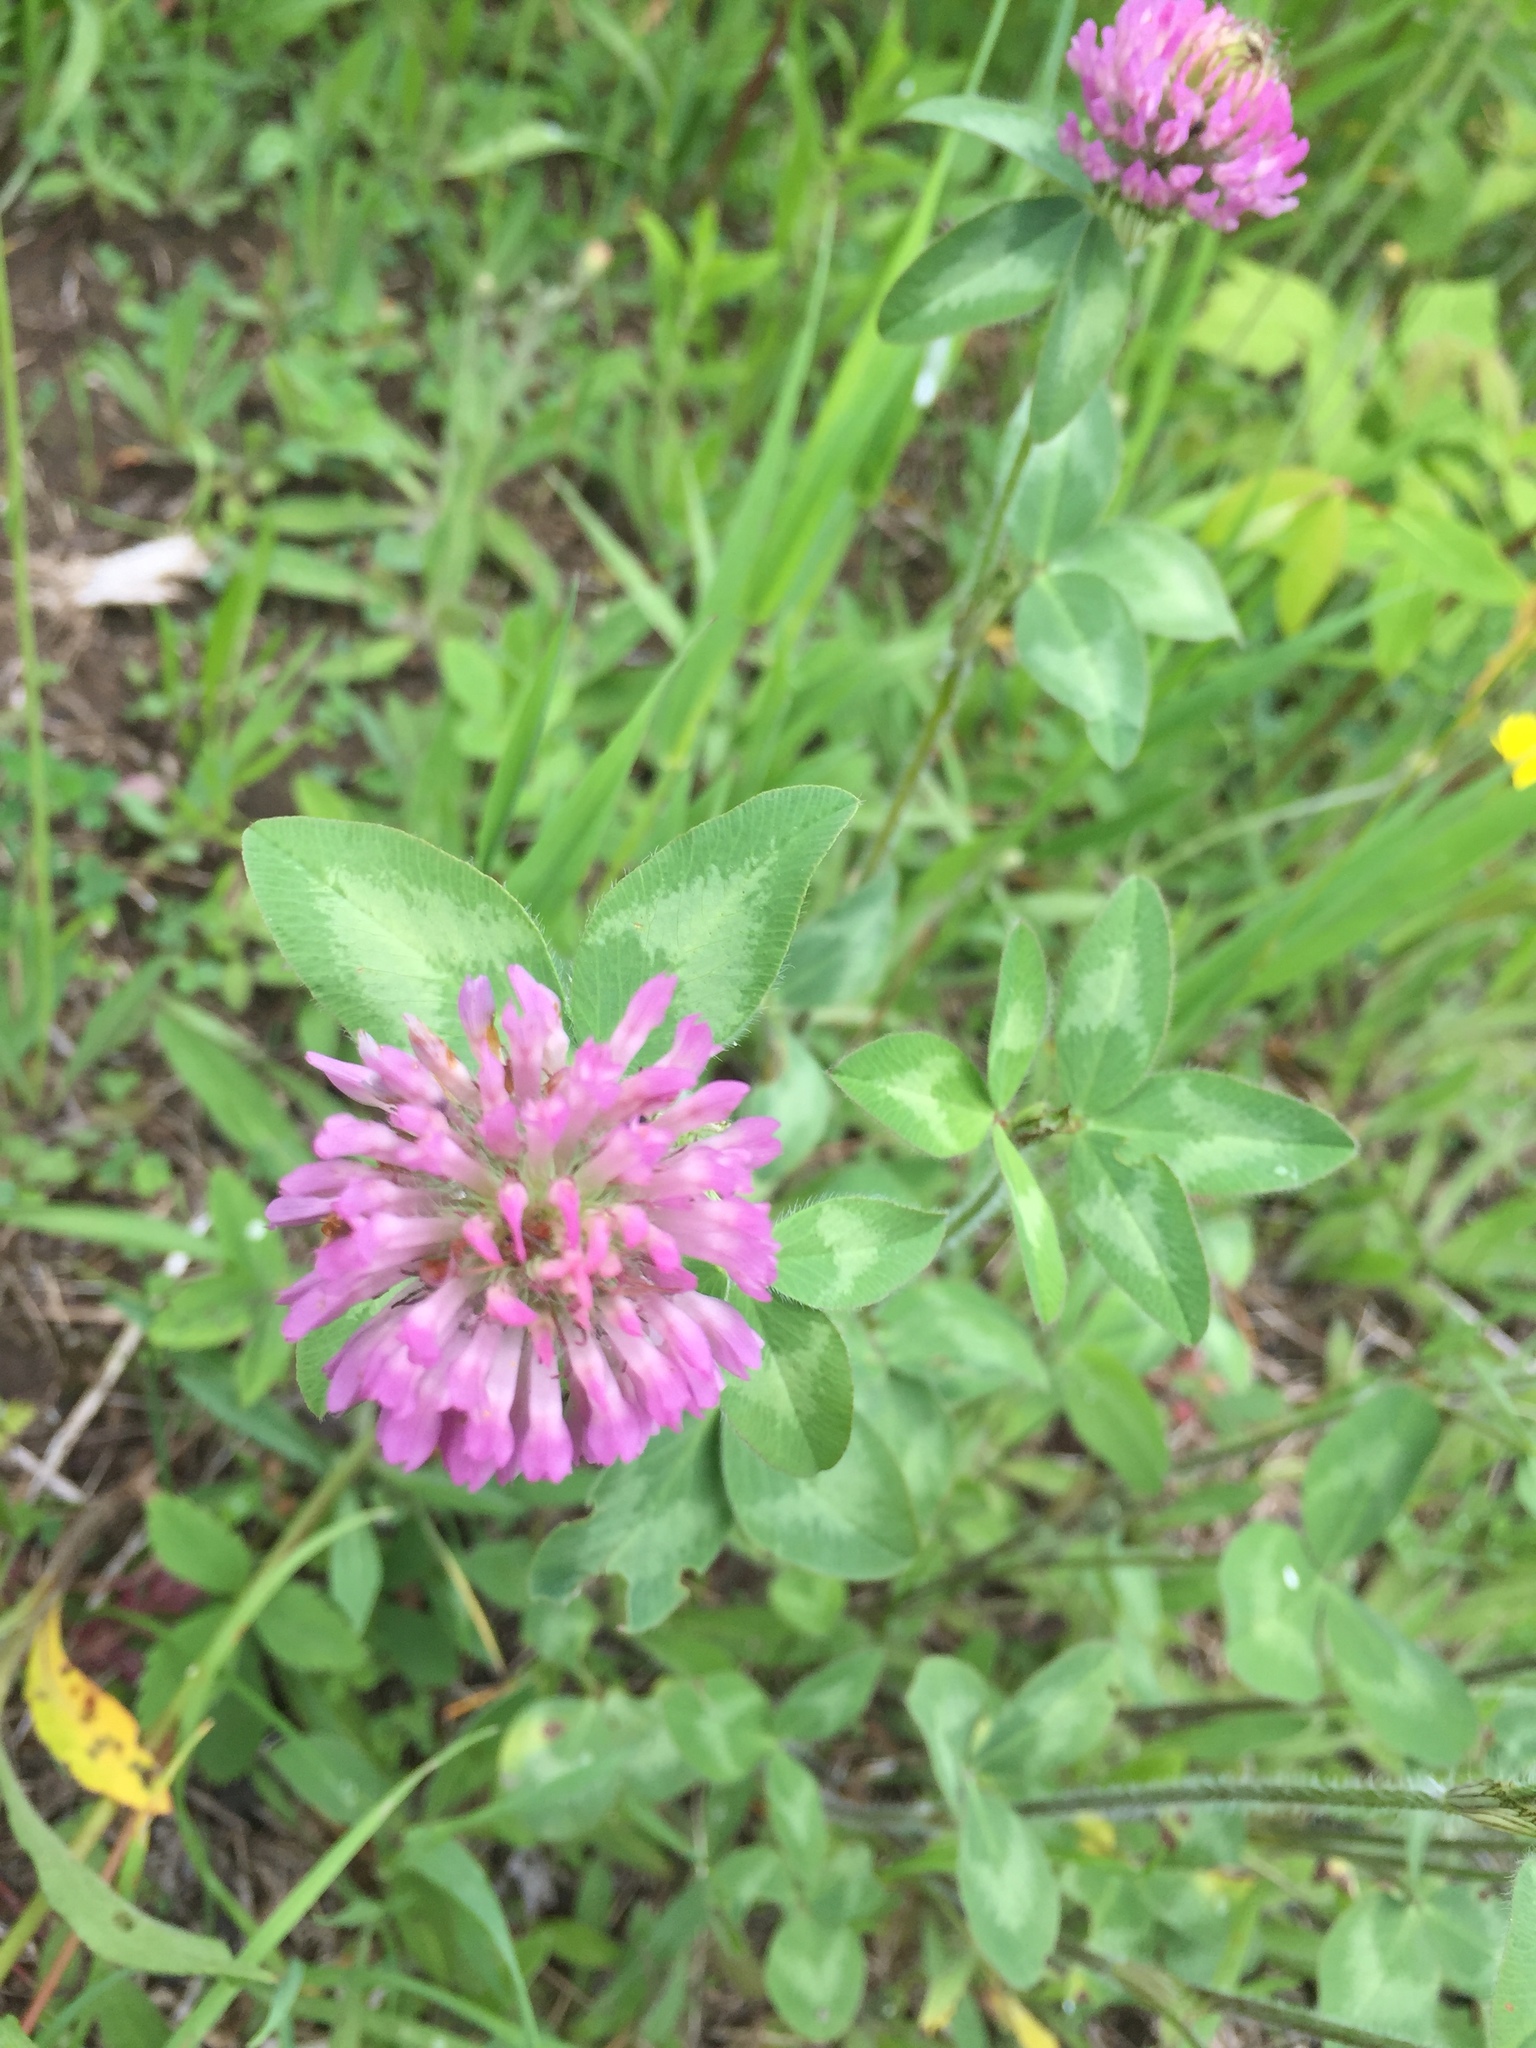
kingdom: Plantae
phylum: Tracheophyta
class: Magnoliopsida
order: Fabales
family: Fabaceae
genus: Trifolium
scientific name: Trifolium pratense
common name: Red clover
